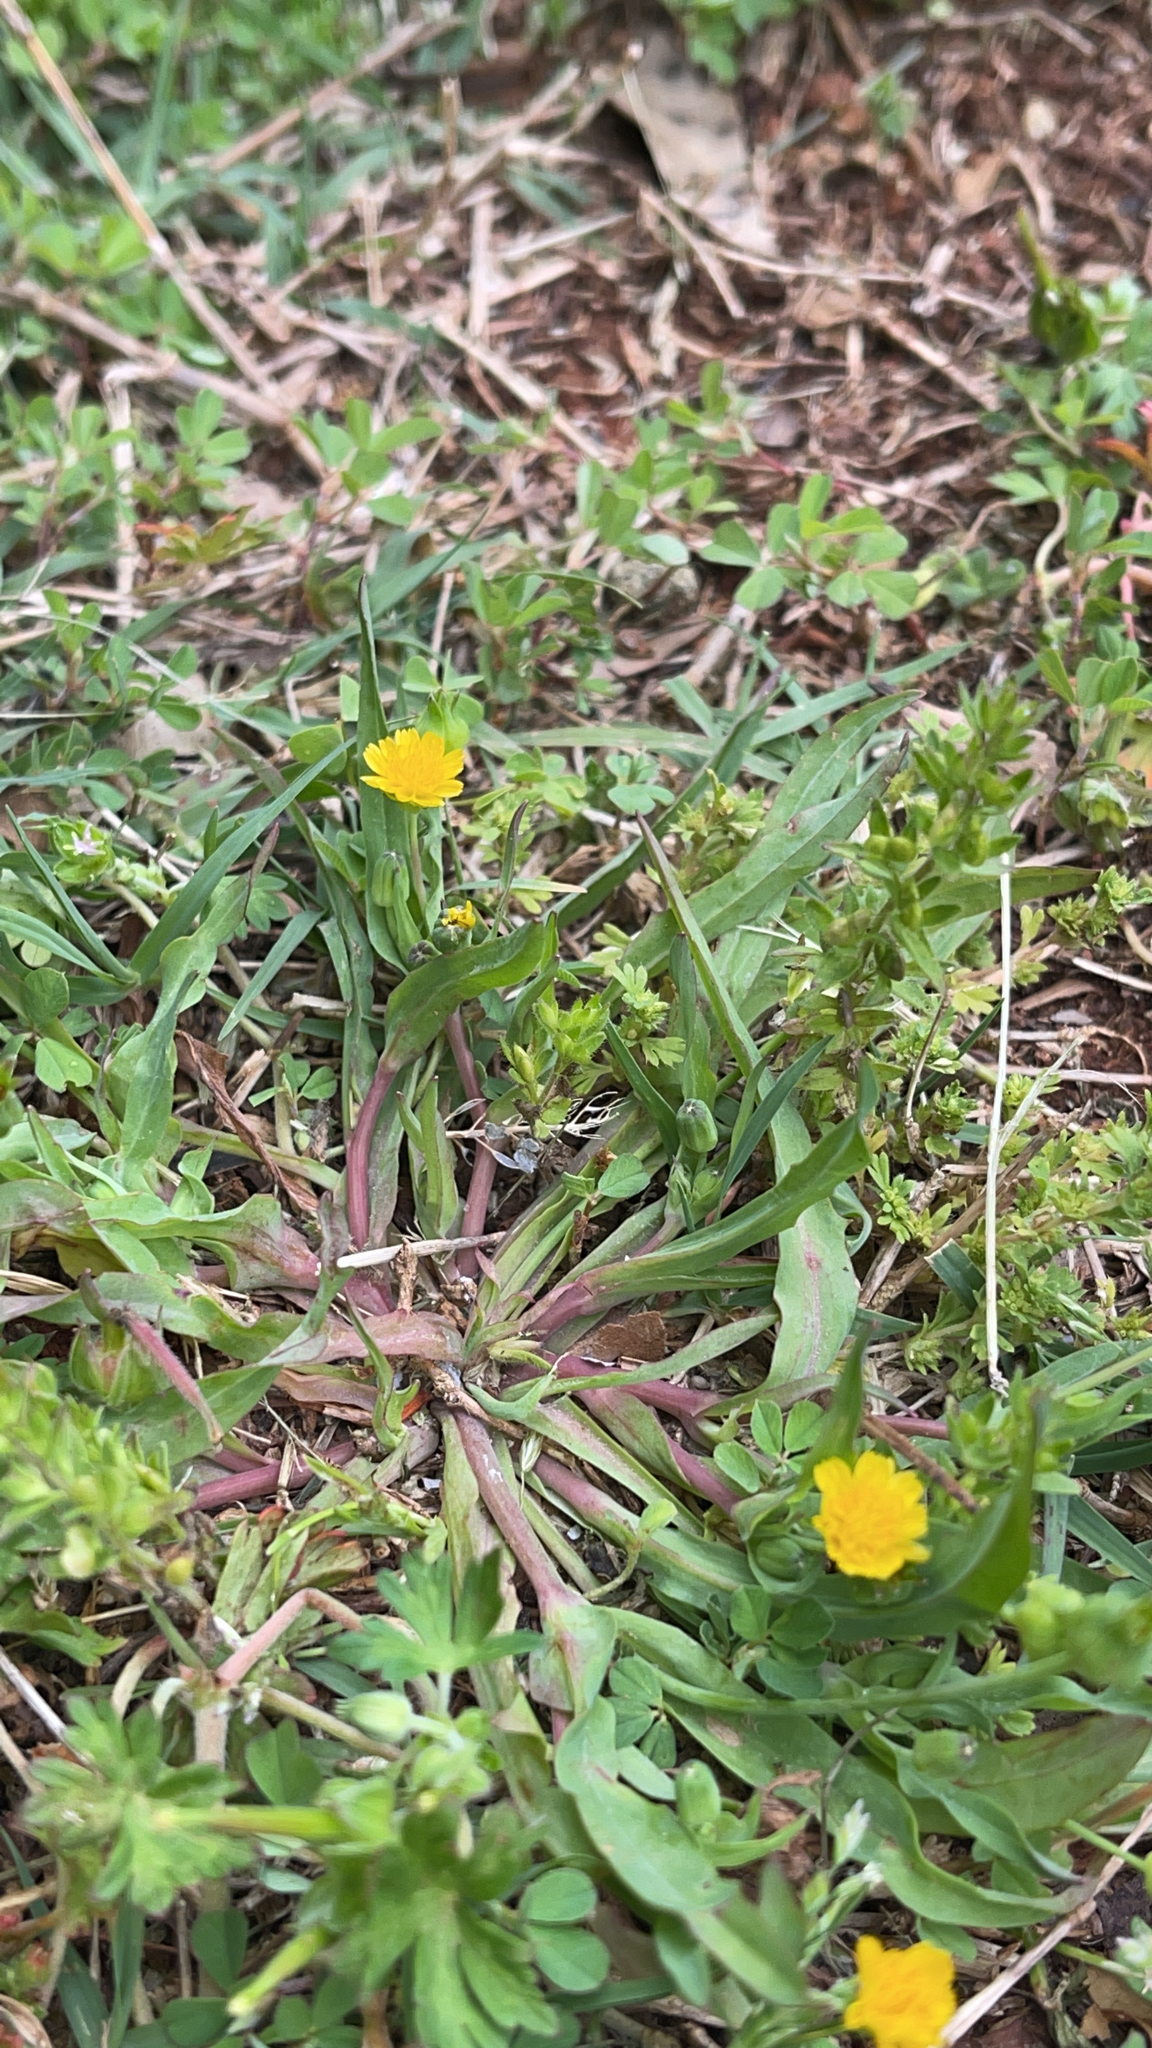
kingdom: Plantae
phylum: Tracheophyta
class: Magnoliopsida
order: Asterales
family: Asteraceae
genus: Krigia
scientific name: Krigia cespitosa
